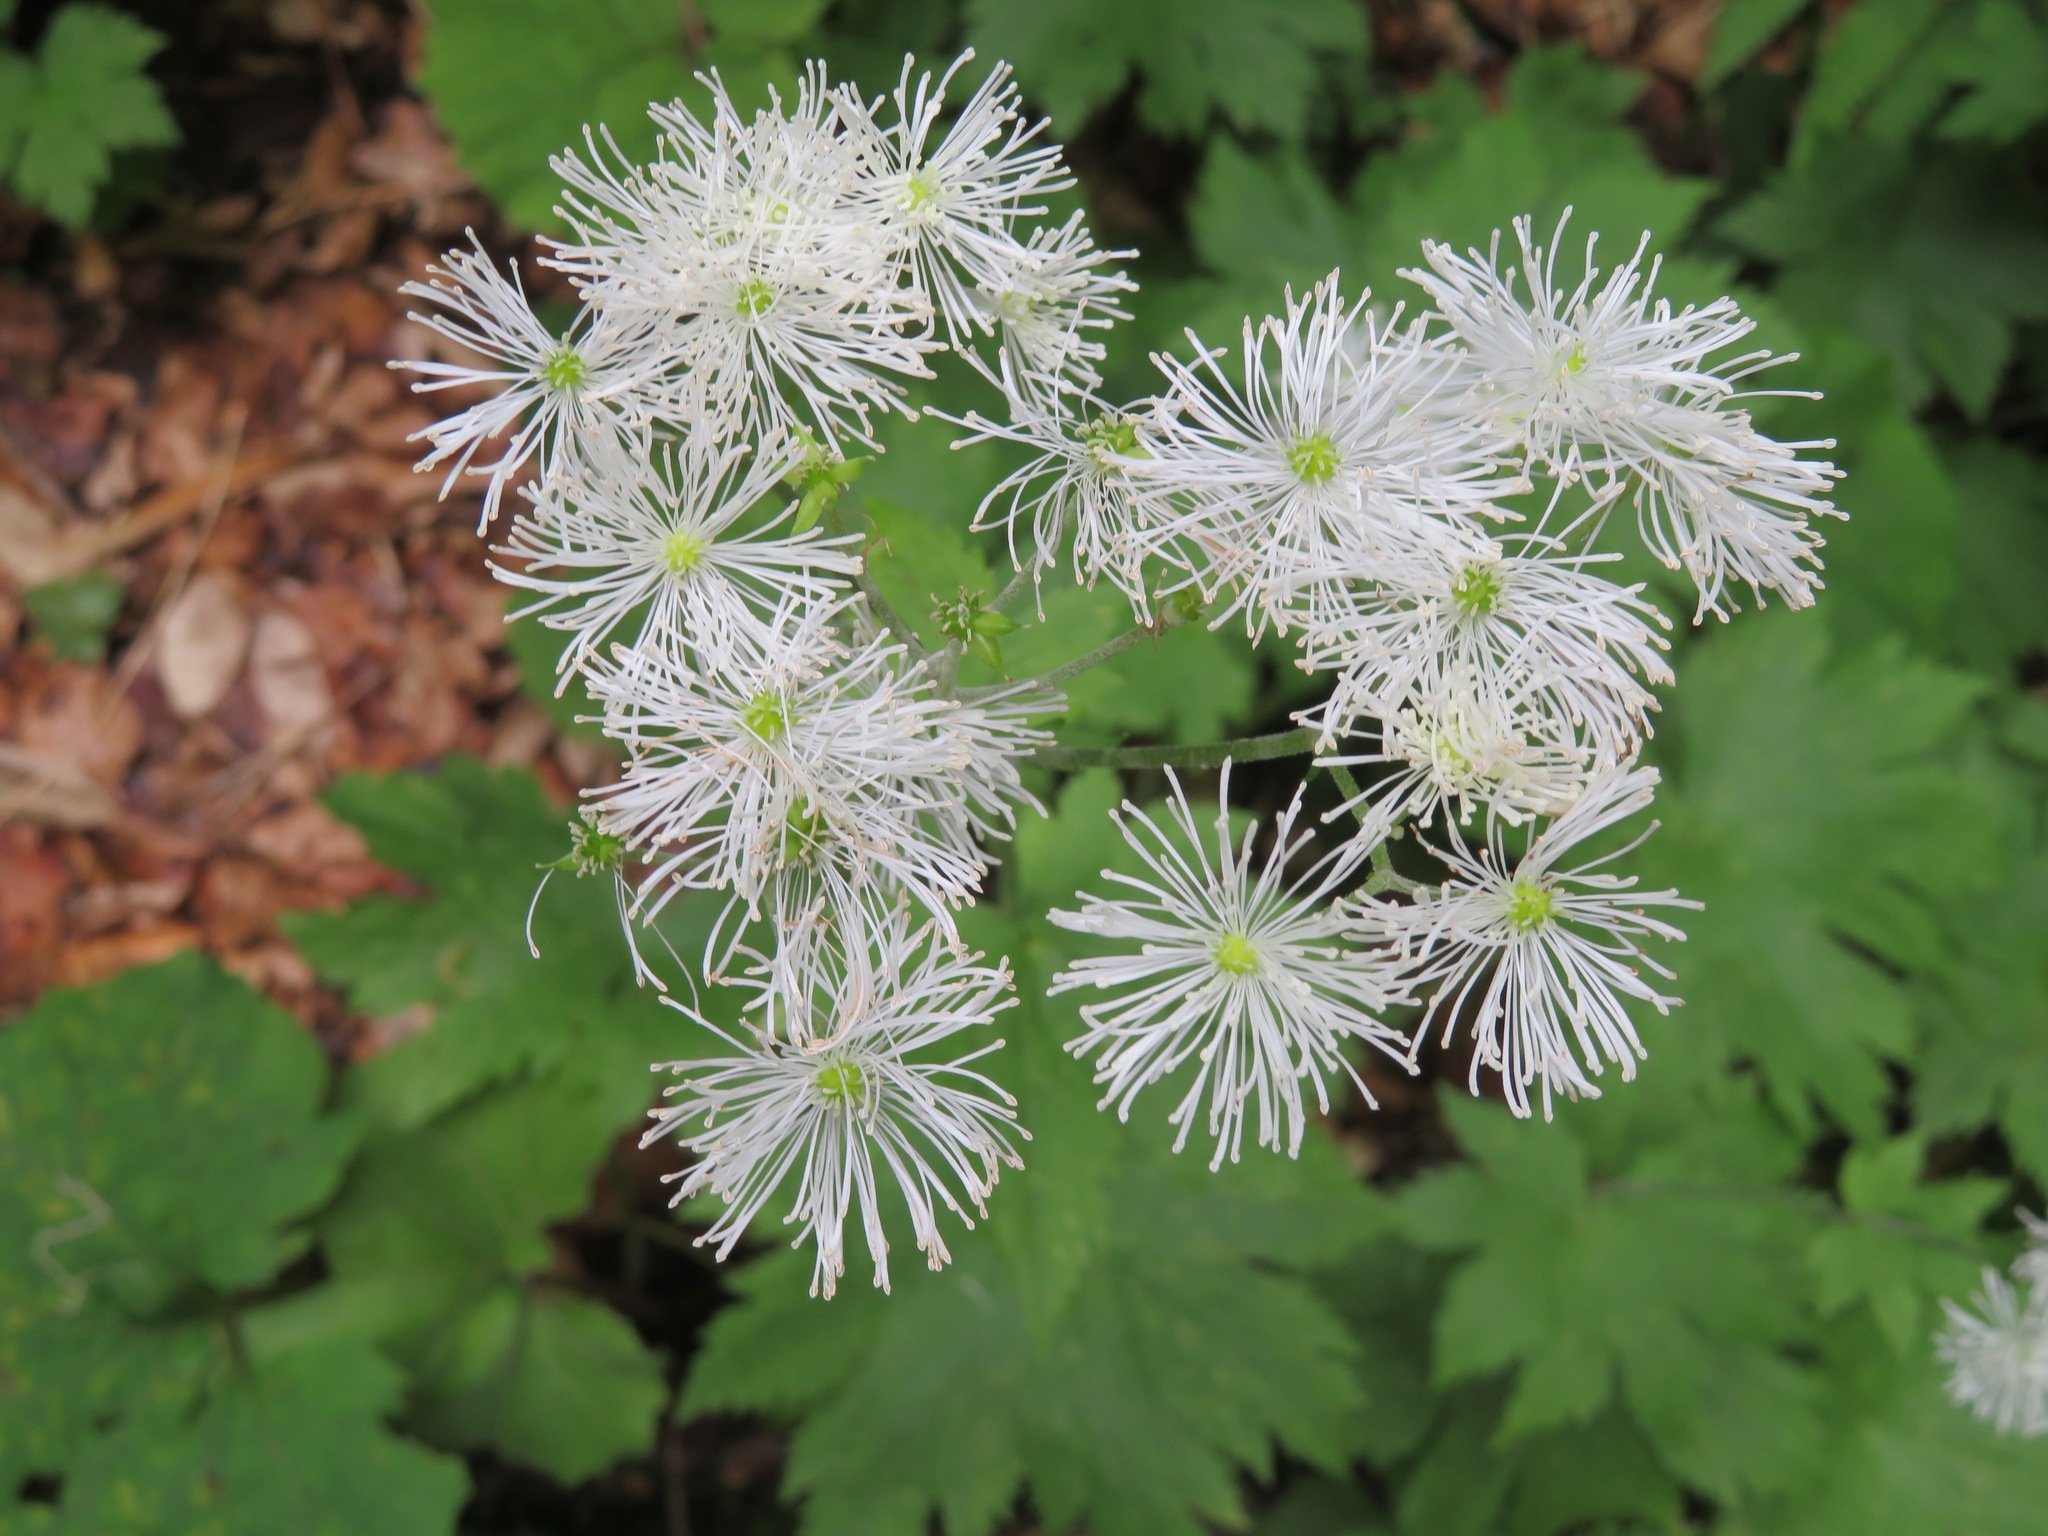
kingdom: Plantae
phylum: Tracheophyta
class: Magnoliopsida
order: Ranunculales
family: Ranunculaceae
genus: Trautvetteria
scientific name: Trautvetteria palmata
